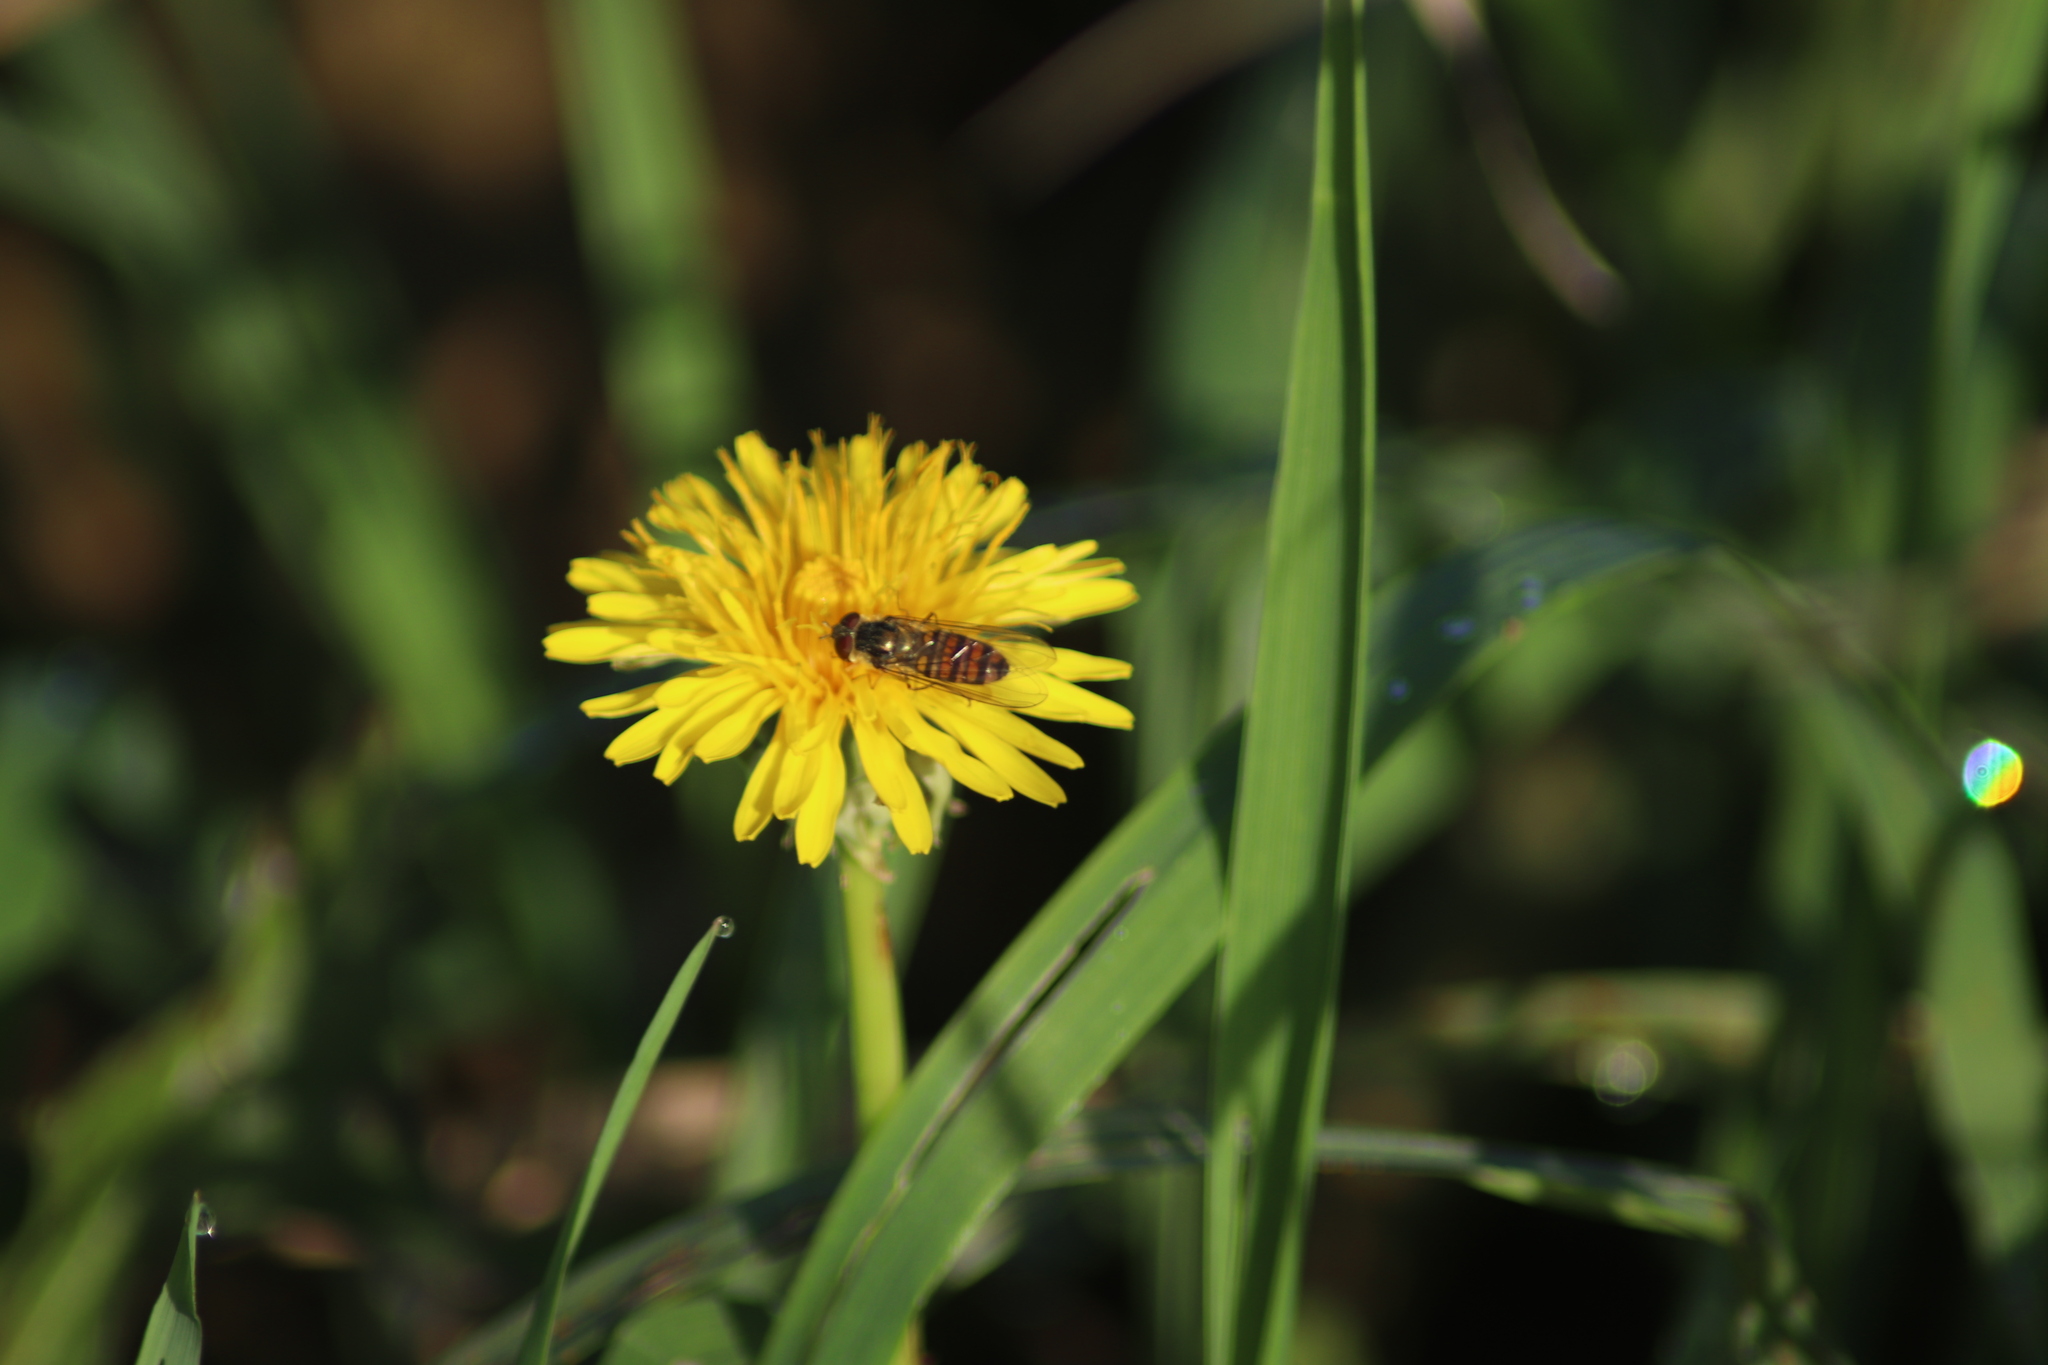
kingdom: Animalia
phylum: Arthropoda
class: Insecta
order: Diptera
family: Syrphidae
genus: Episyrphus
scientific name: Episyrphus balteatus
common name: Marmalade hoverfly
